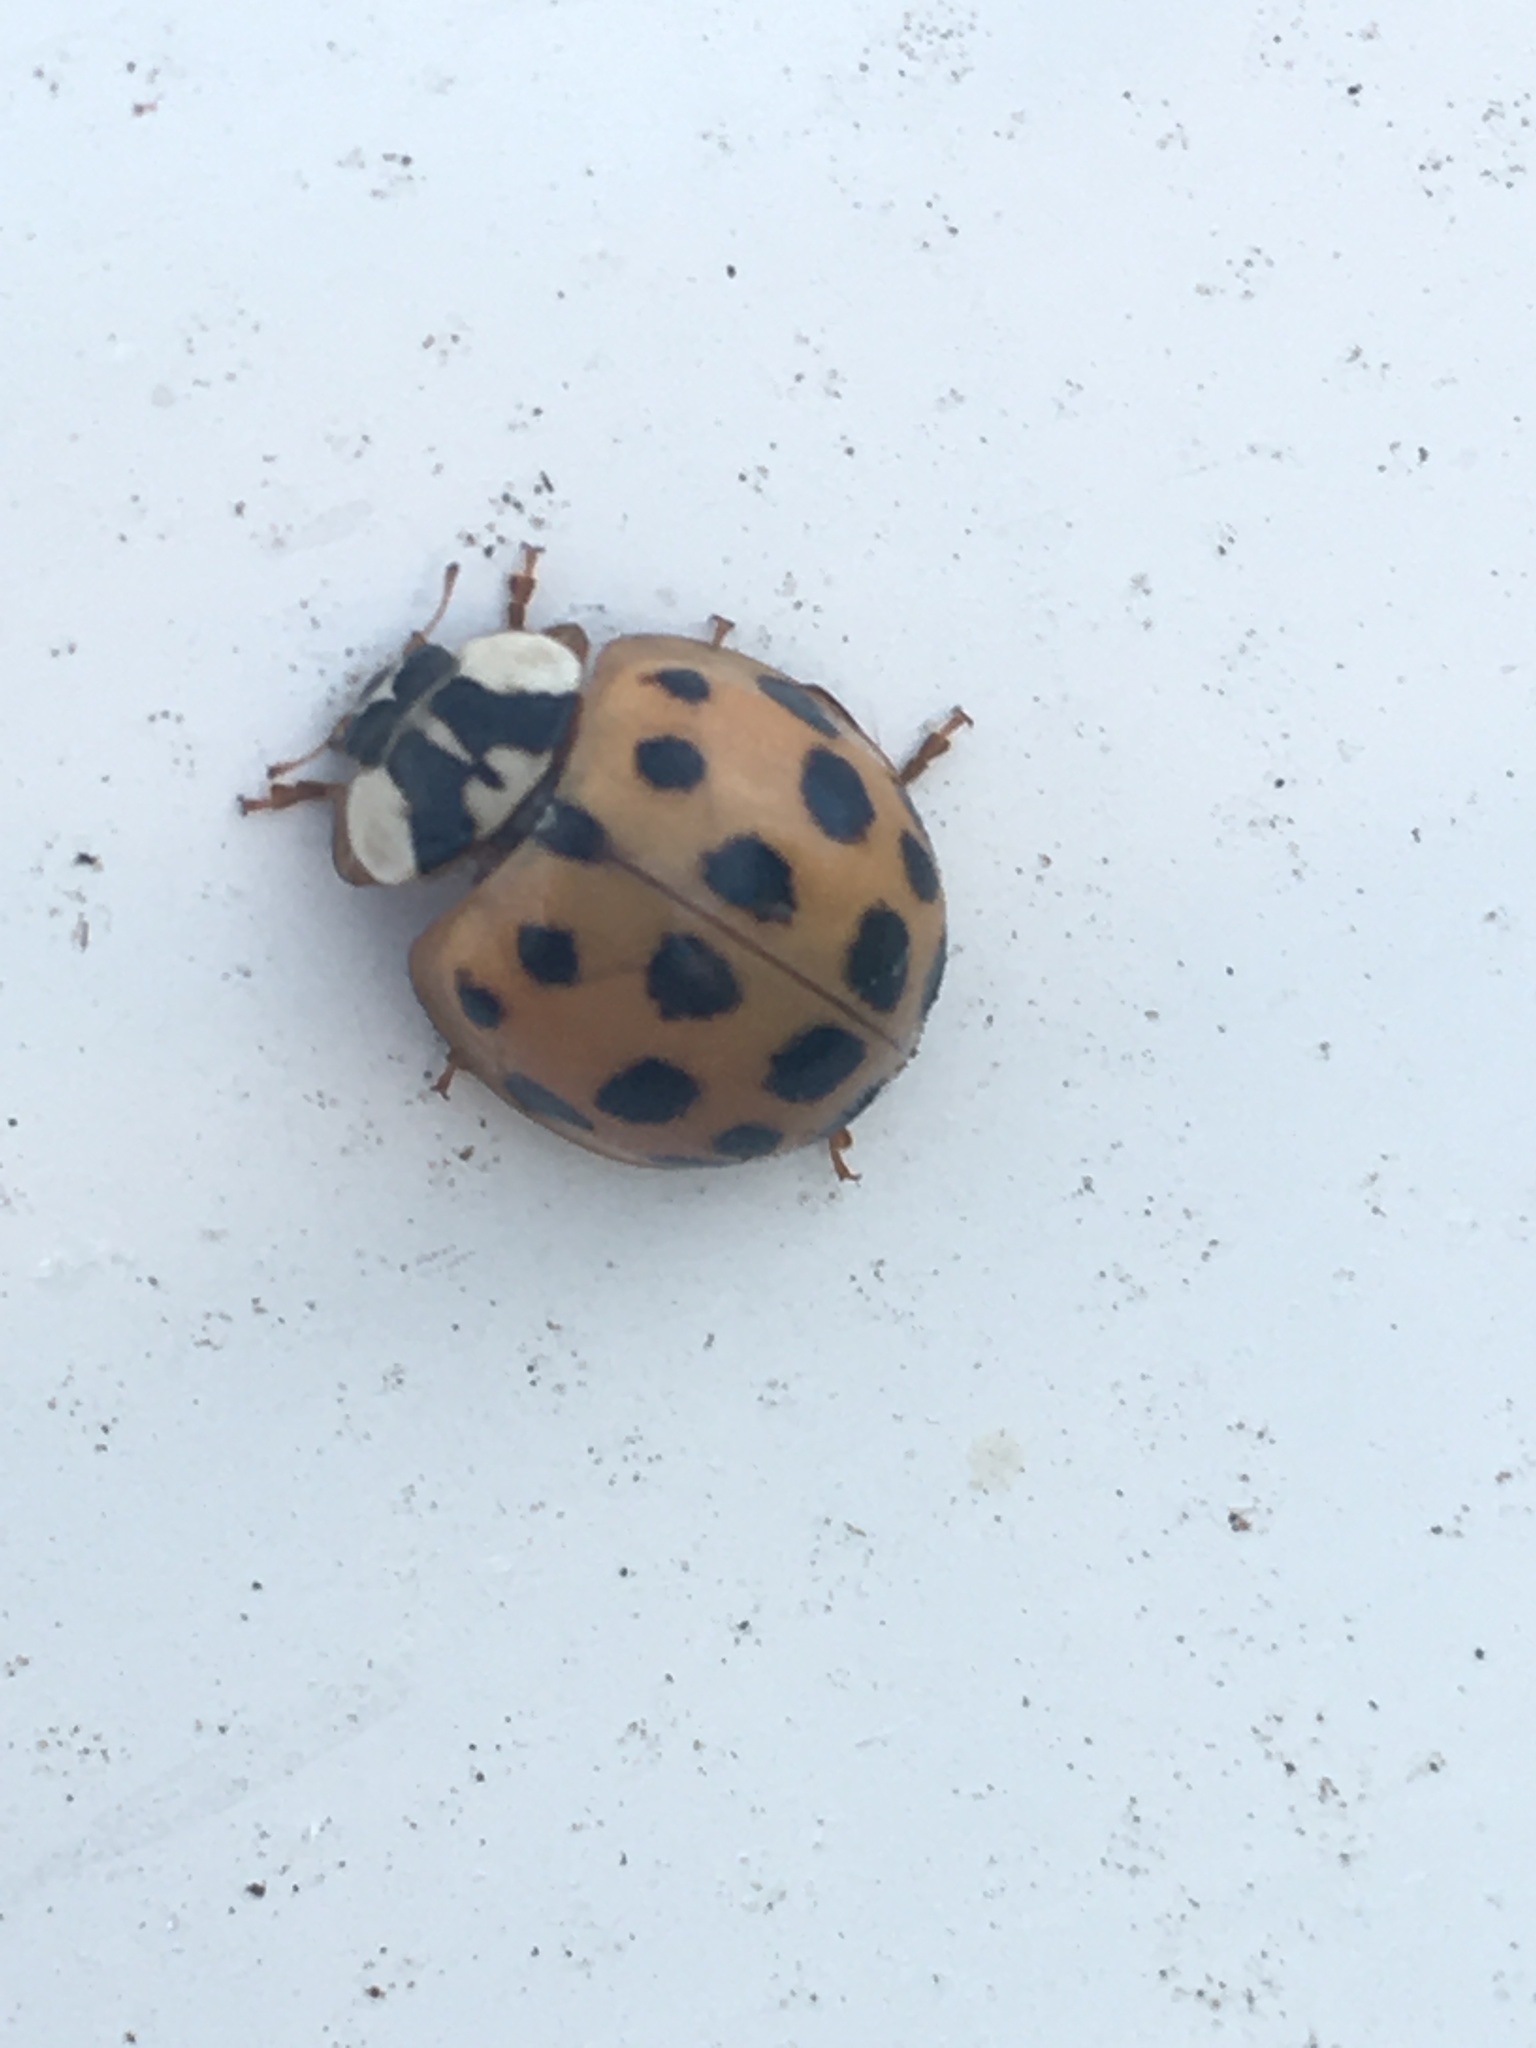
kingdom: Animalia
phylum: Arthropoda
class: Insecta
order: Coleoptera
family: Coccinellidae
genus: Harmonia
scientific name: Harmonia axyridis
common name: Harlequin ladybird
